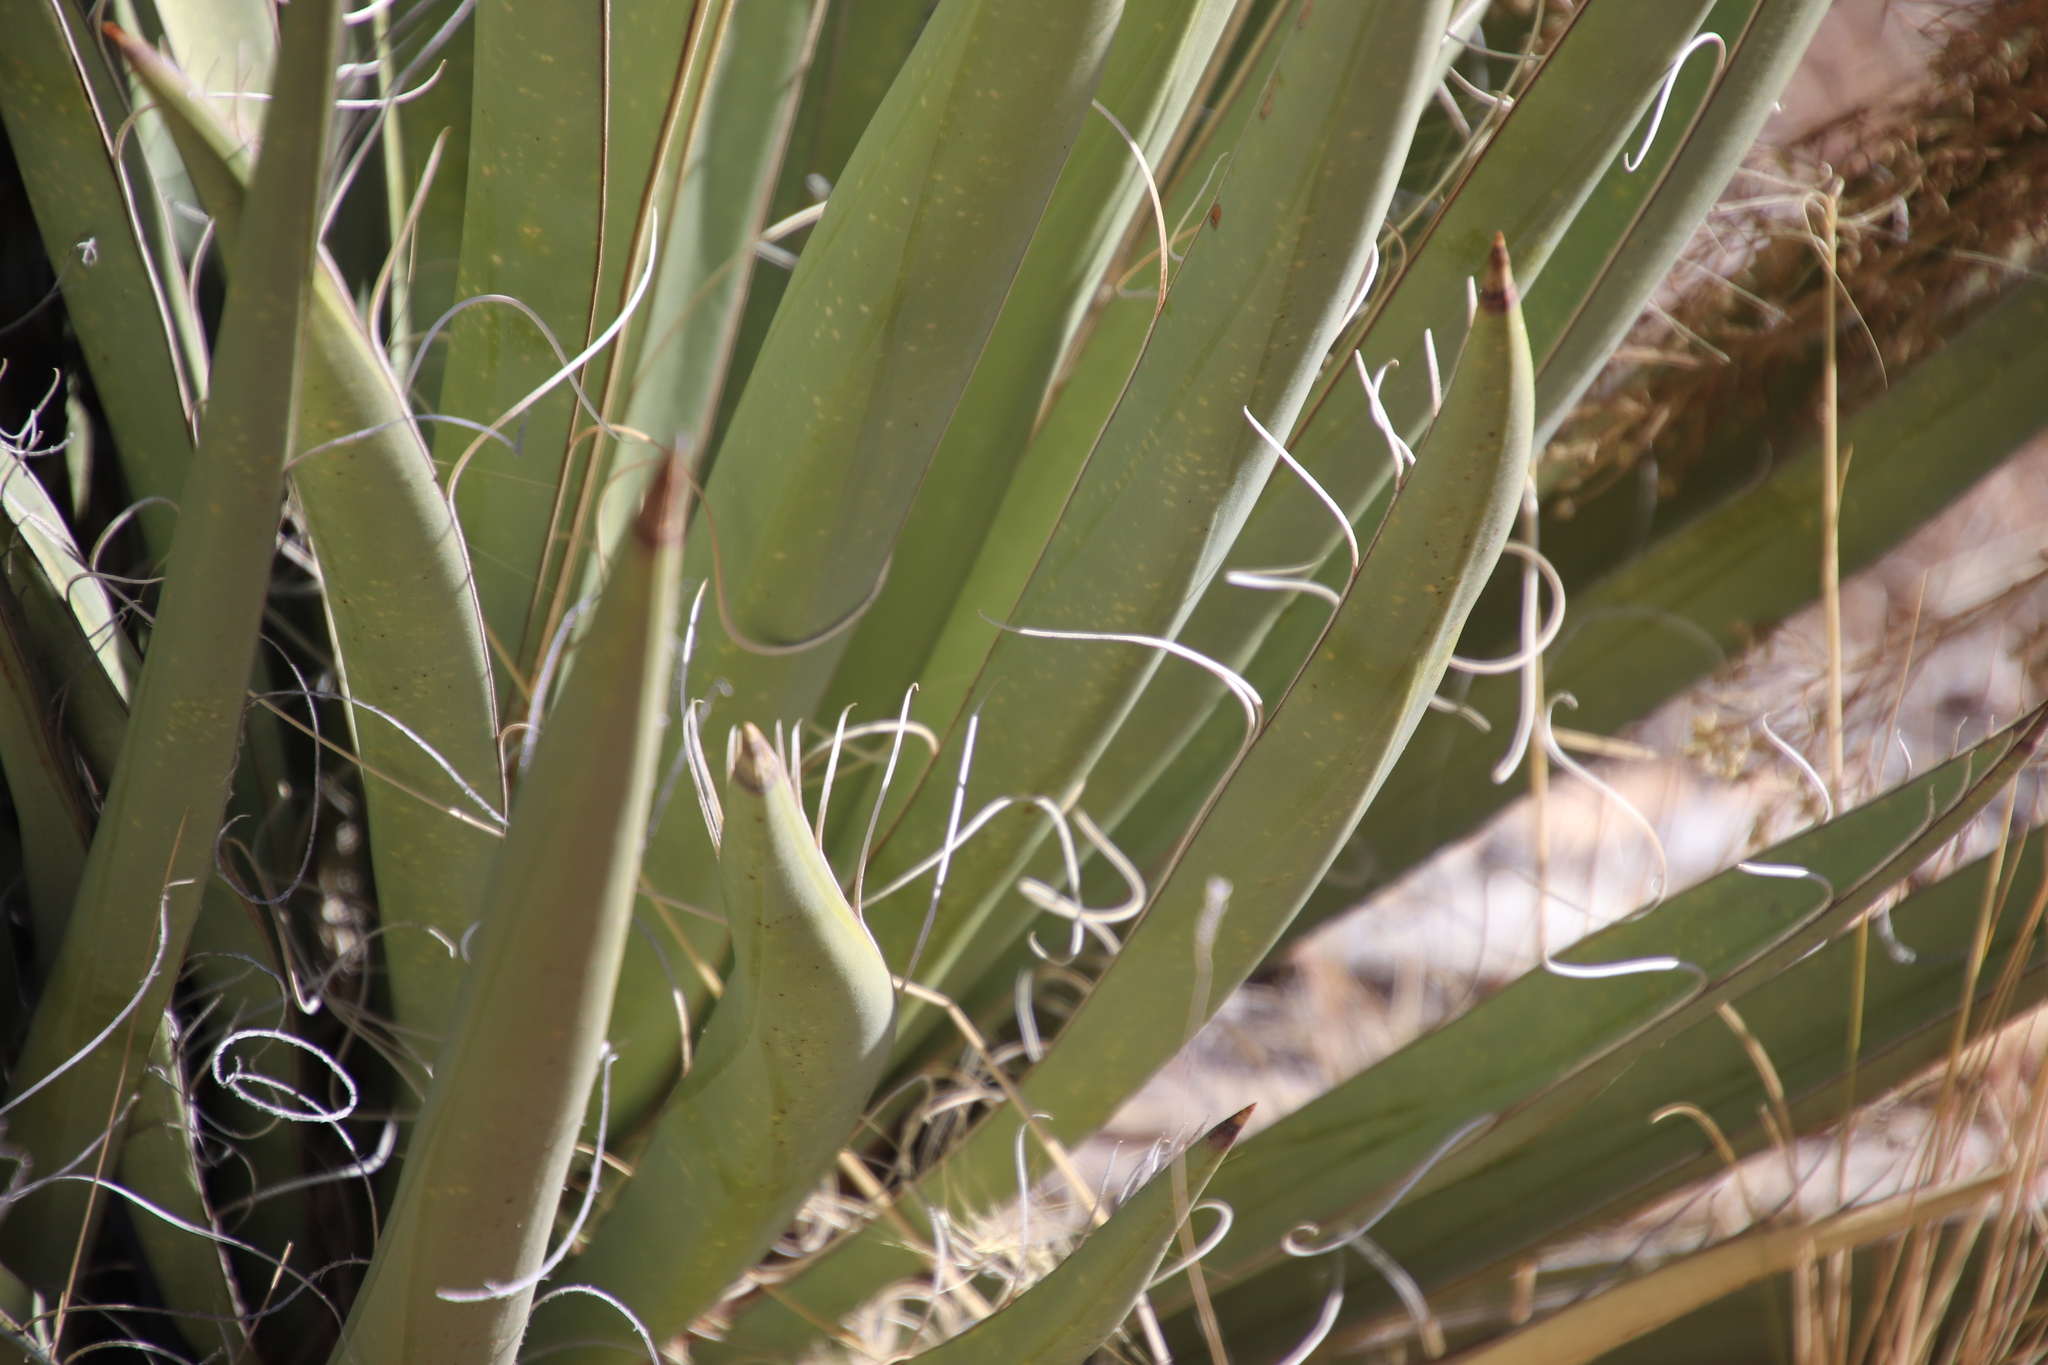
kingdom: Plantae
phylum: Tracheophyta
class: Liliopsida
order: Asparagales
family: Asparagaceae
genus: Yucca
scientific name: Yucca baccata
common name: Banana yucca
